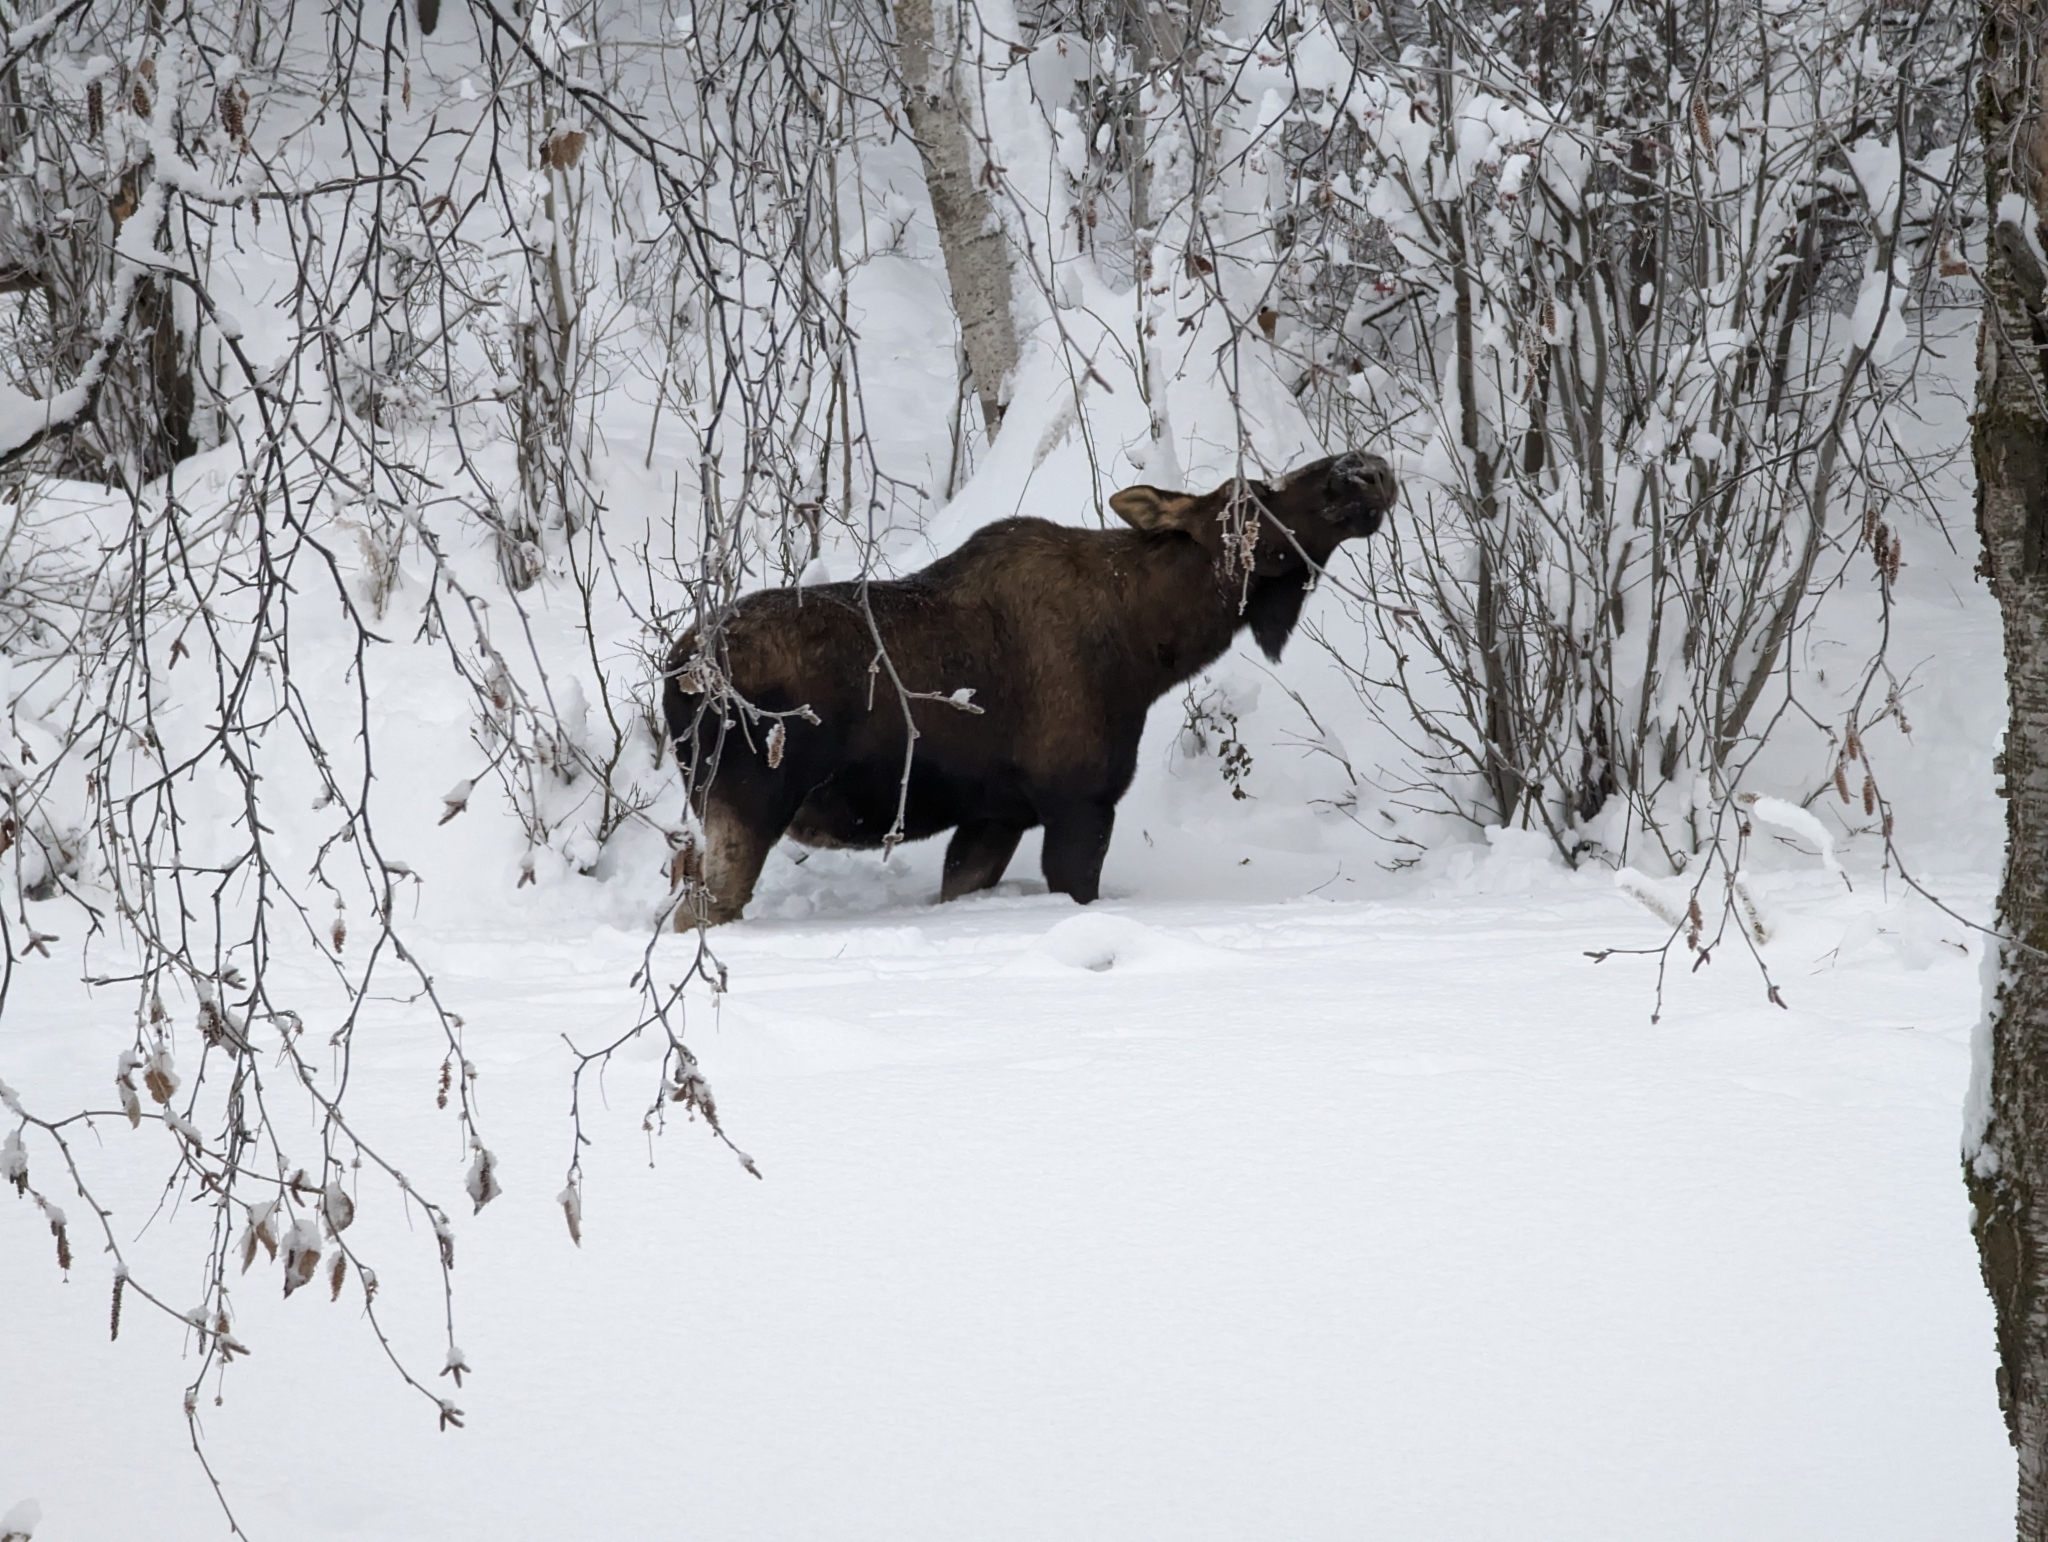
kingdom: Animalia
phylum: Chordata
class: Mammalia
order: Artiodactyla
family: Cervidae
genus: Alces
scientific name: Alces alces
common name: Moose
